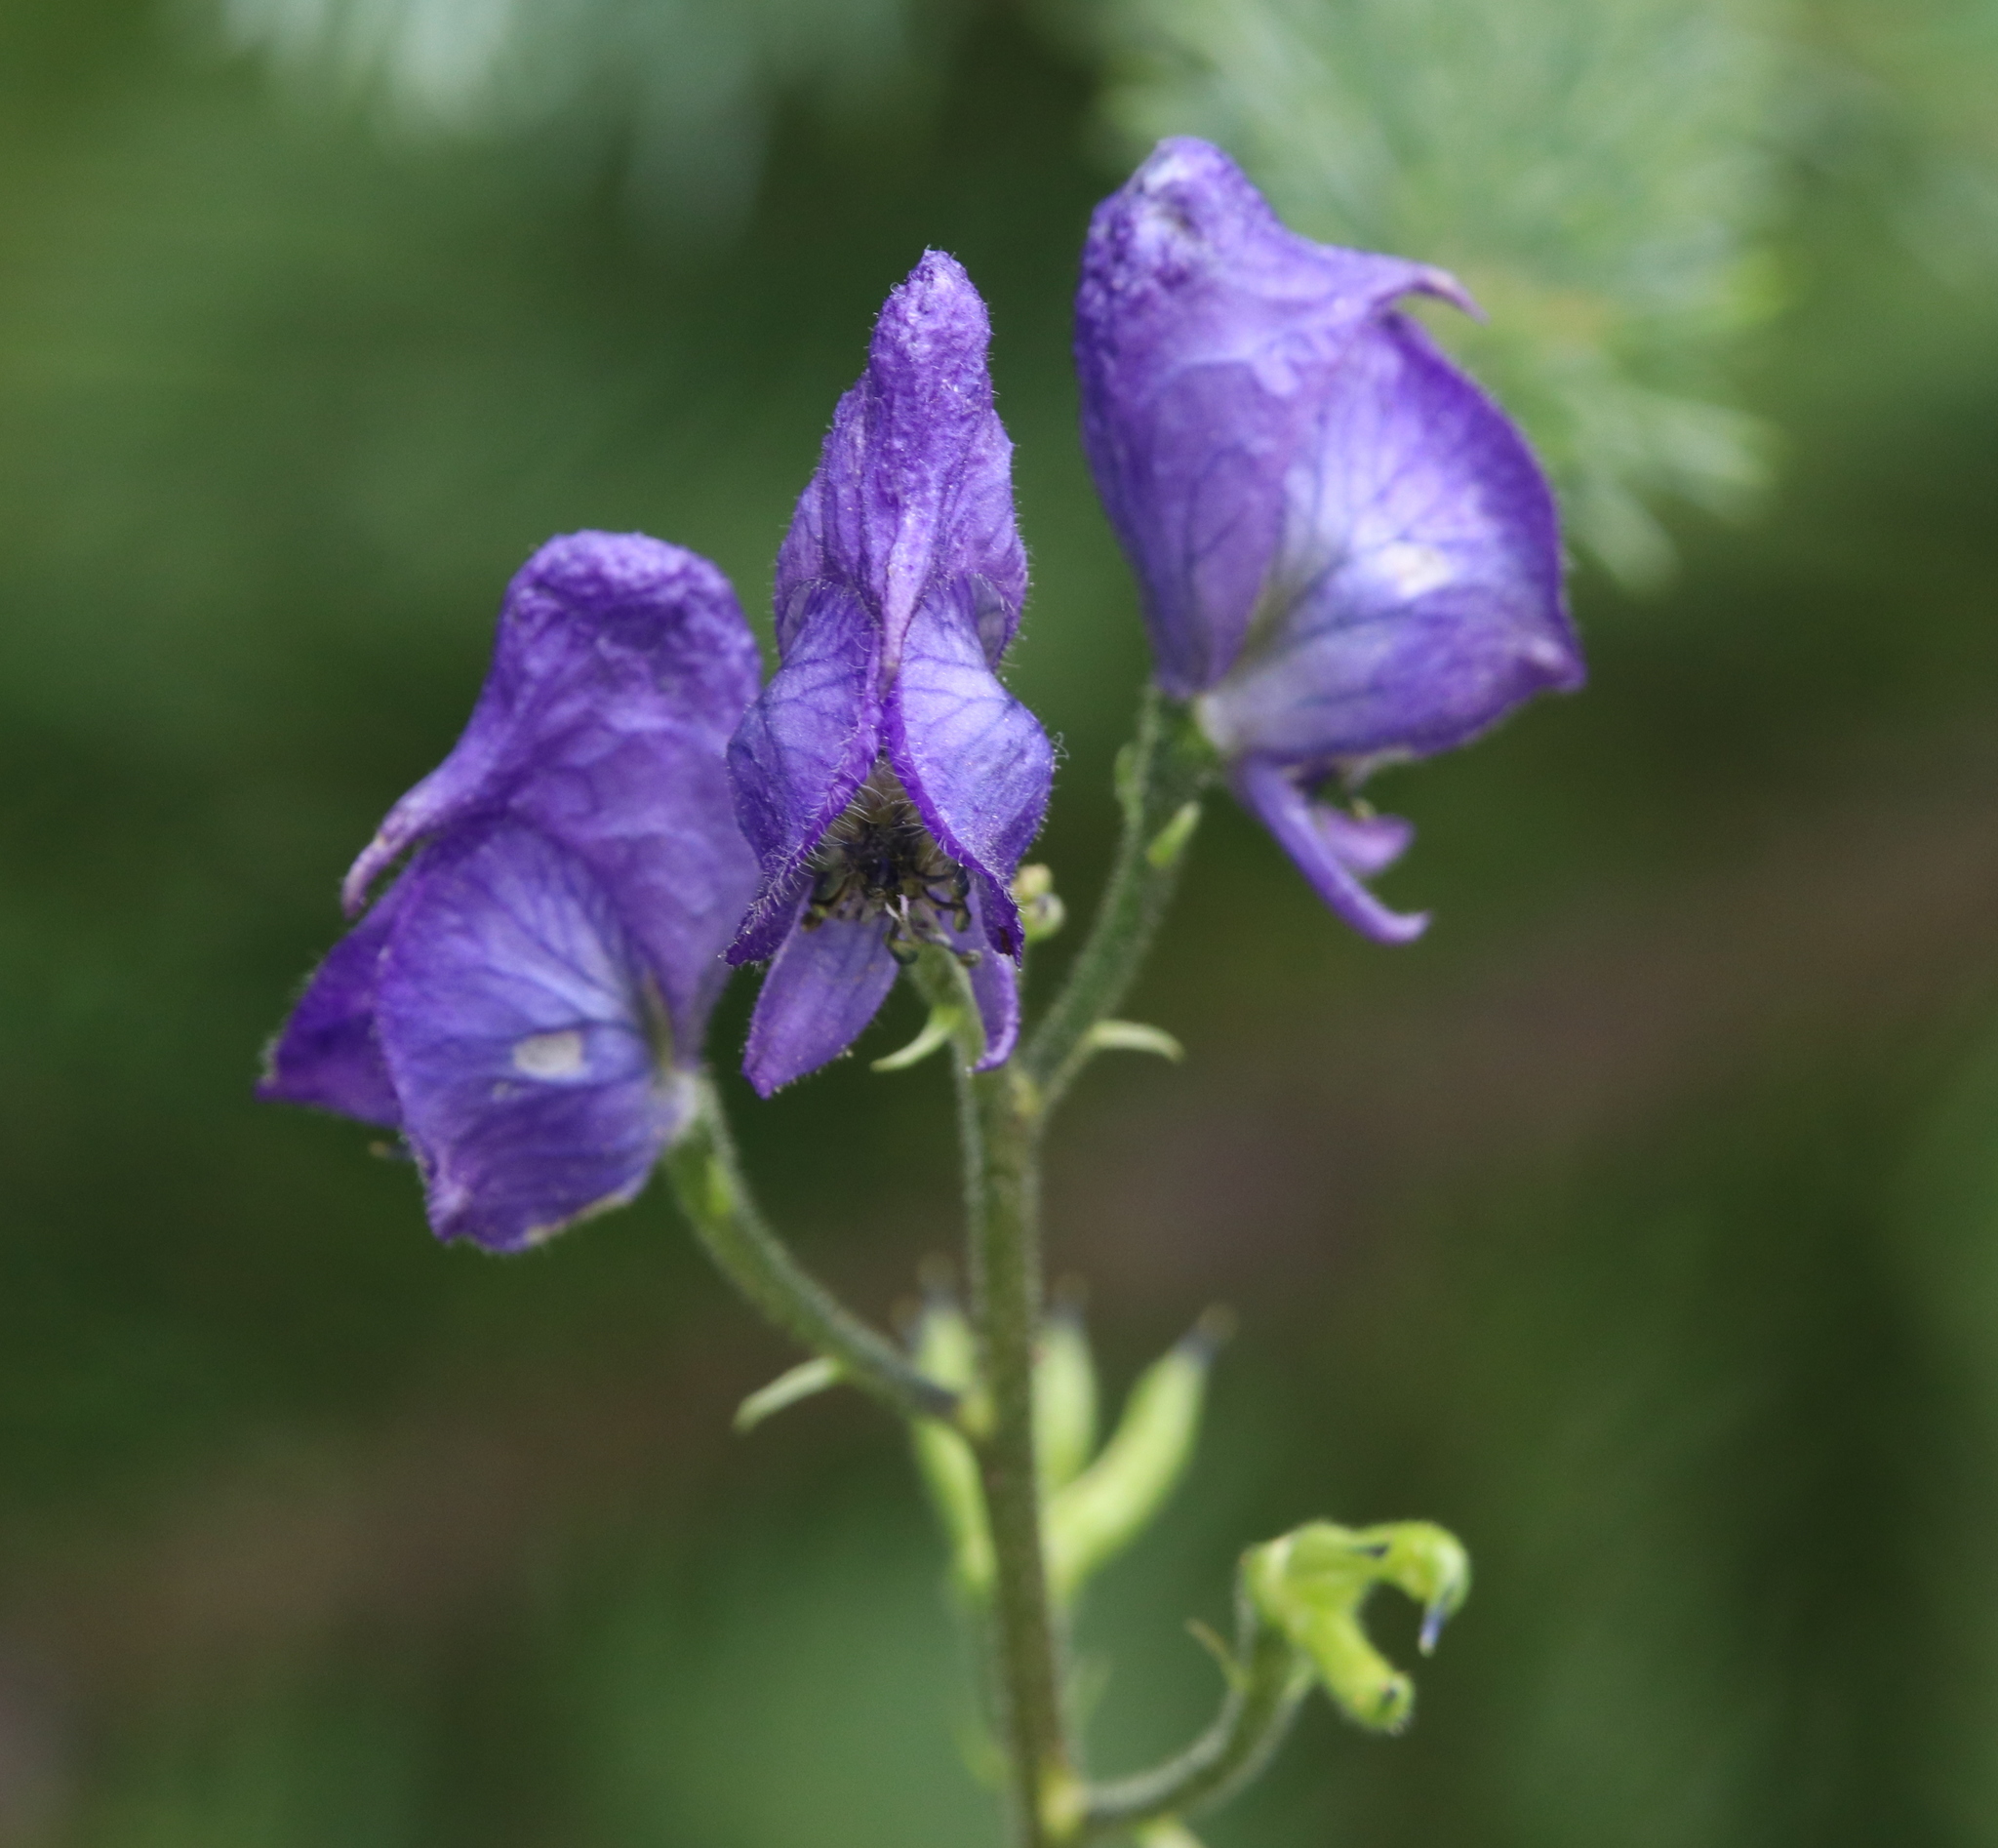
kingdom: Plantae
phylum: Tracheophyta
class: Magnoliopsida
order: Ranunculales
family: Ranunculaceae
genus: Aconitum
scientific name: Aconitum columbianum
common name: Columbia aconite
